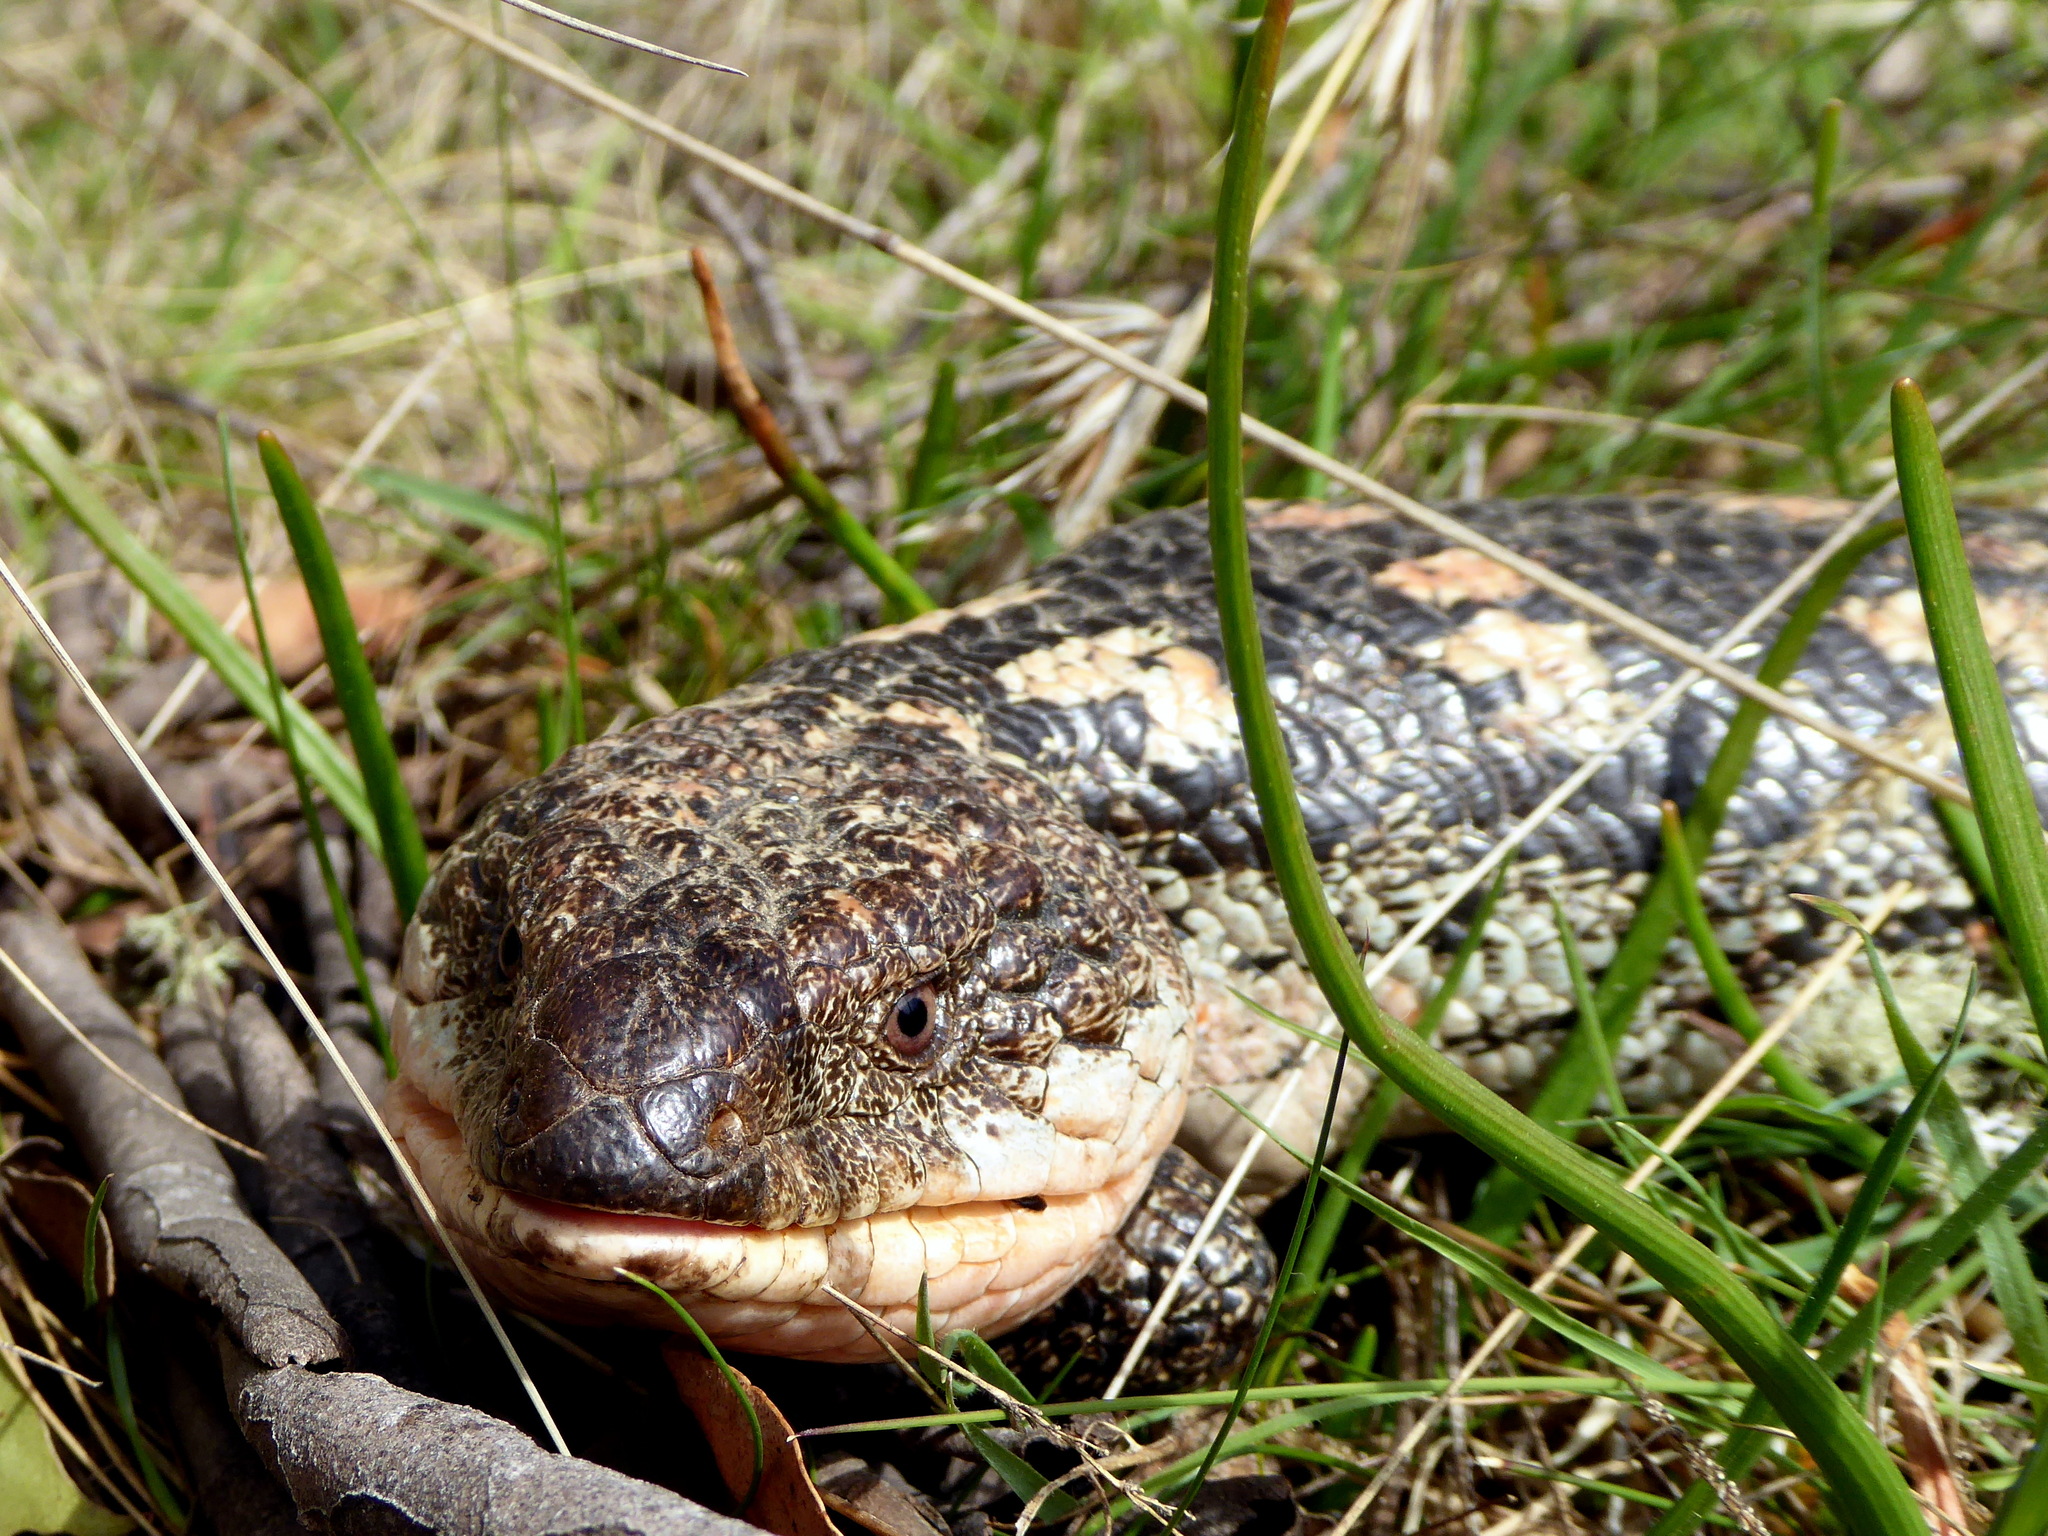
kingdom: Animalia
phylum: Chordata
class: Squamata
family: Scincidae
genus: Tiliqua
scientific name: Tiliqua nigrolutea
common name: Blotched blue-tongued lizard
